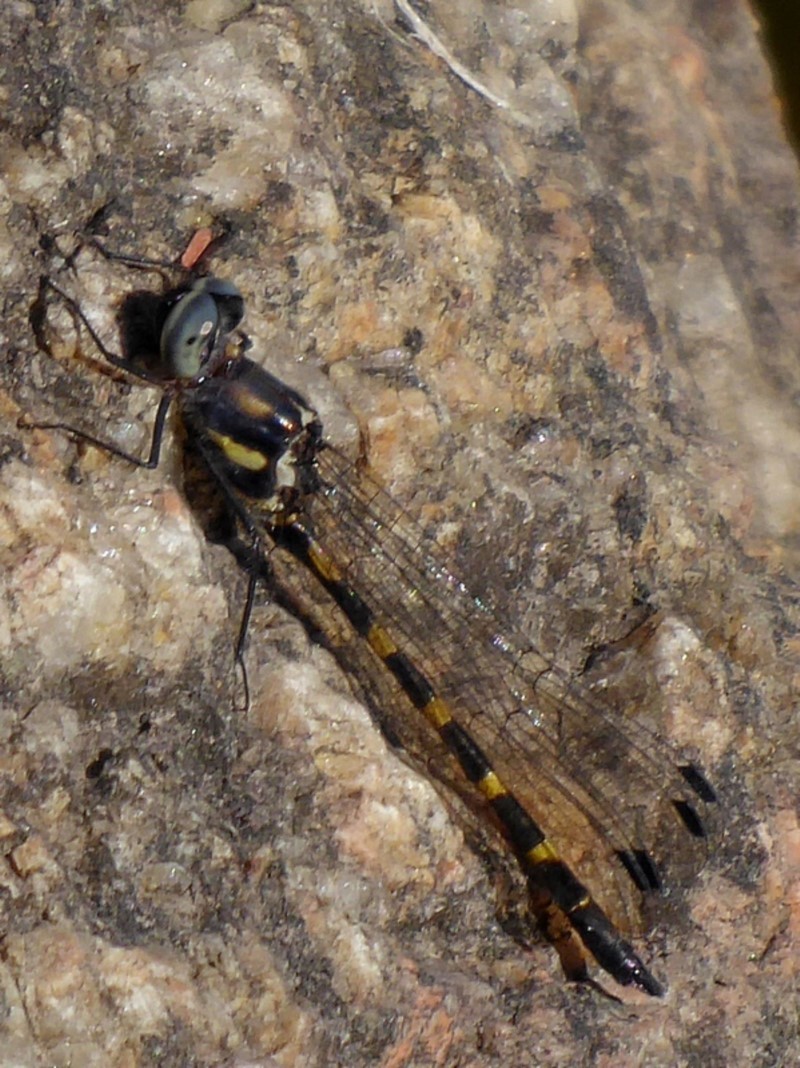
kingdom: Animalia
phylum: Arthropoda
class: Insecta
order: Odonata
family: Corduliidae
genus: Cordulephya
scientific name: Cordulephya pygmaea
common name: Common shutwing
